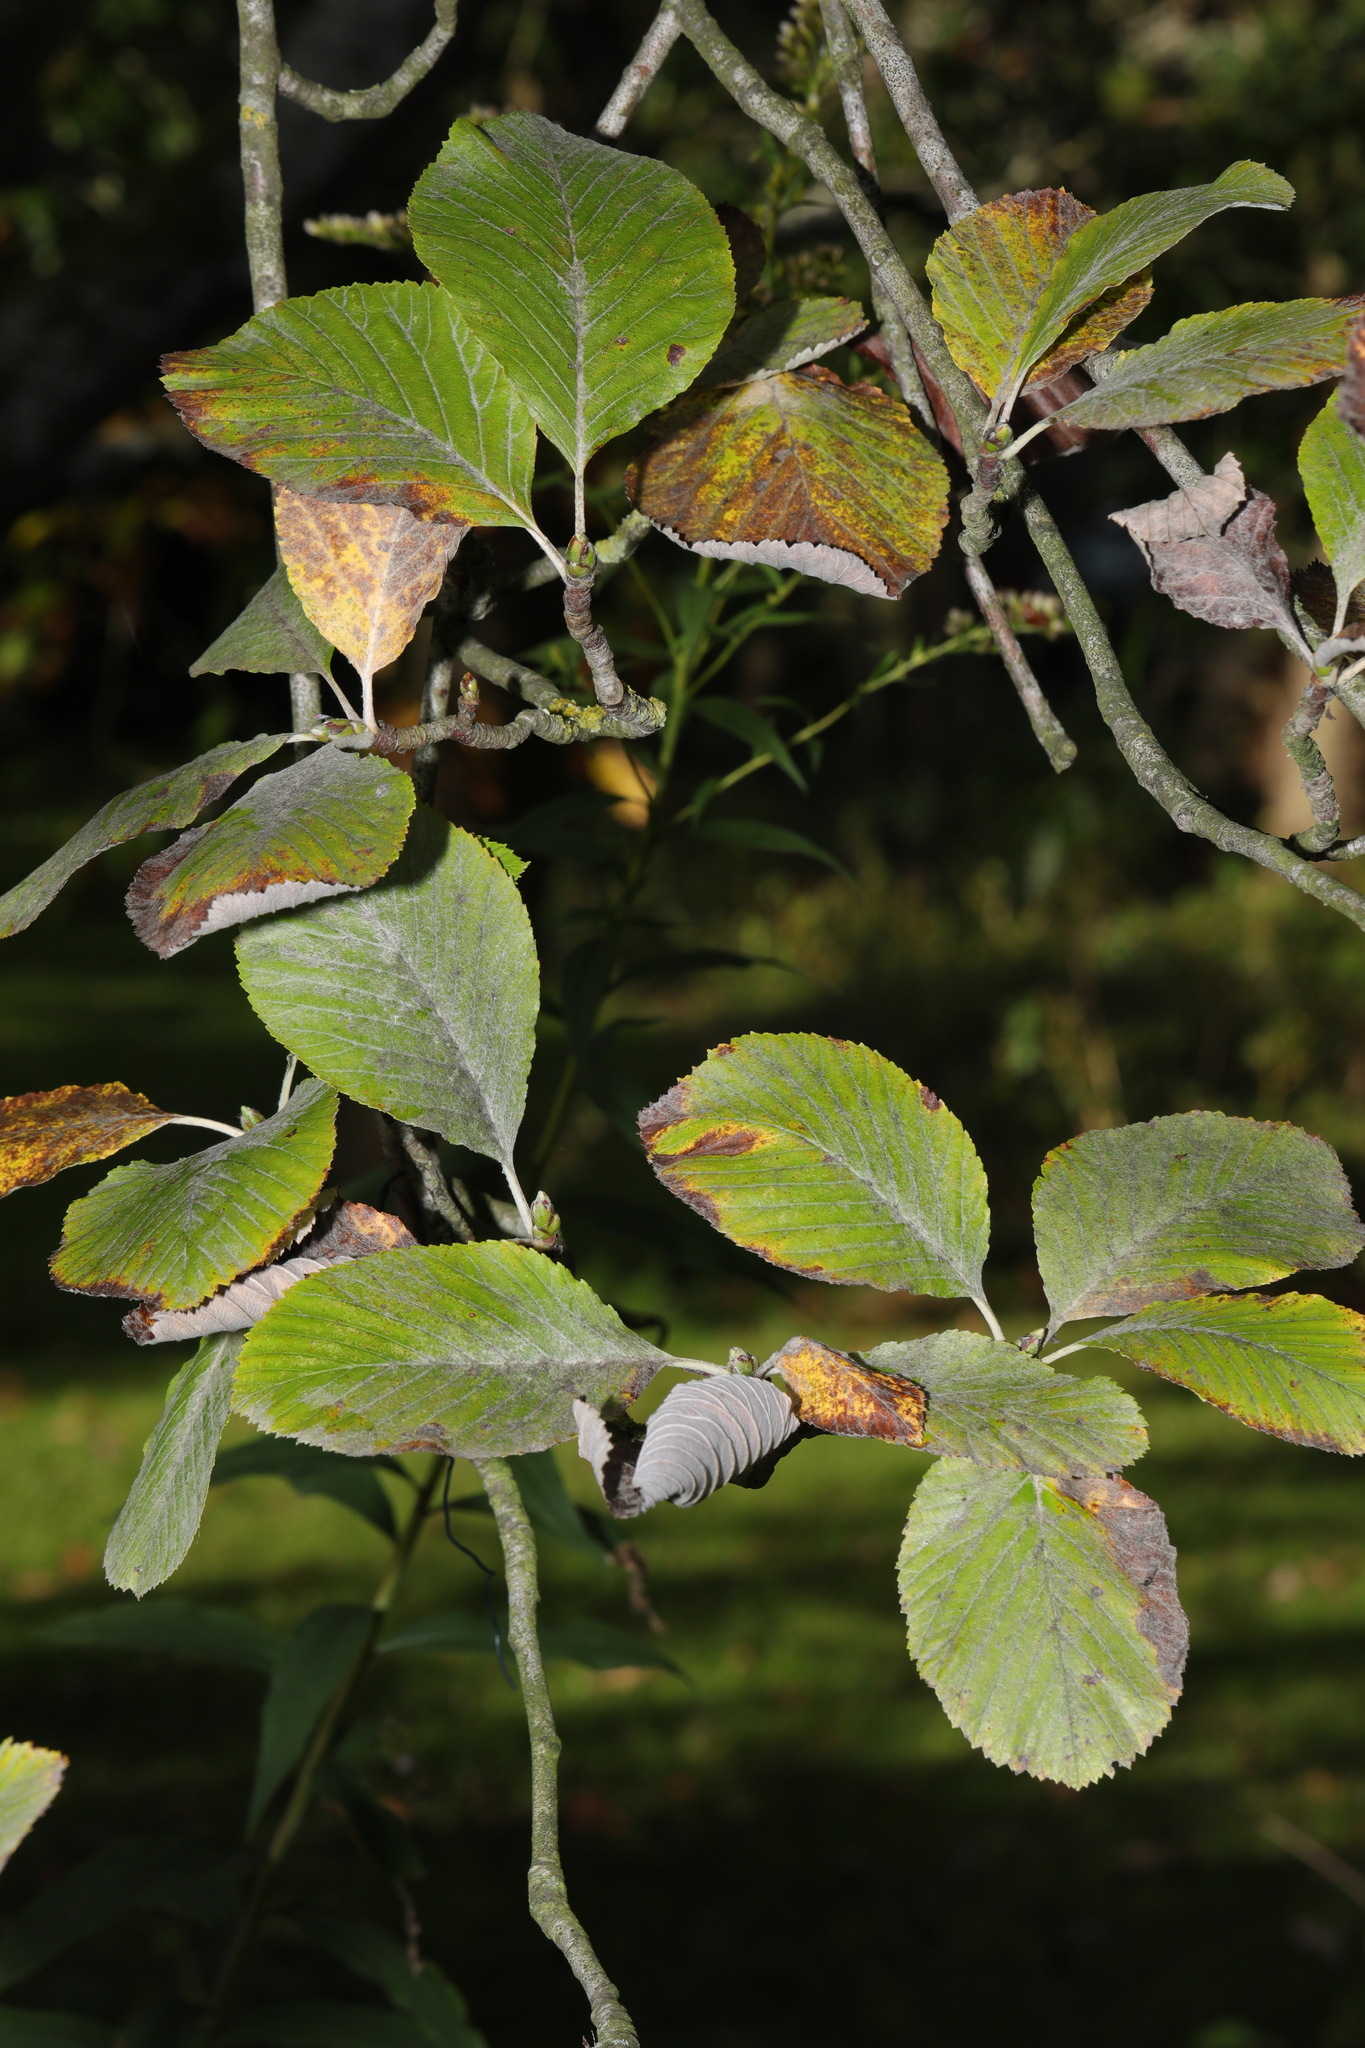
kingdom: Plantae
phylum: Tracheophyta
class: Magnoliopsida
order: Rosales
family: Rosaceae
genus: Aria
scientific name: Aria edulis
